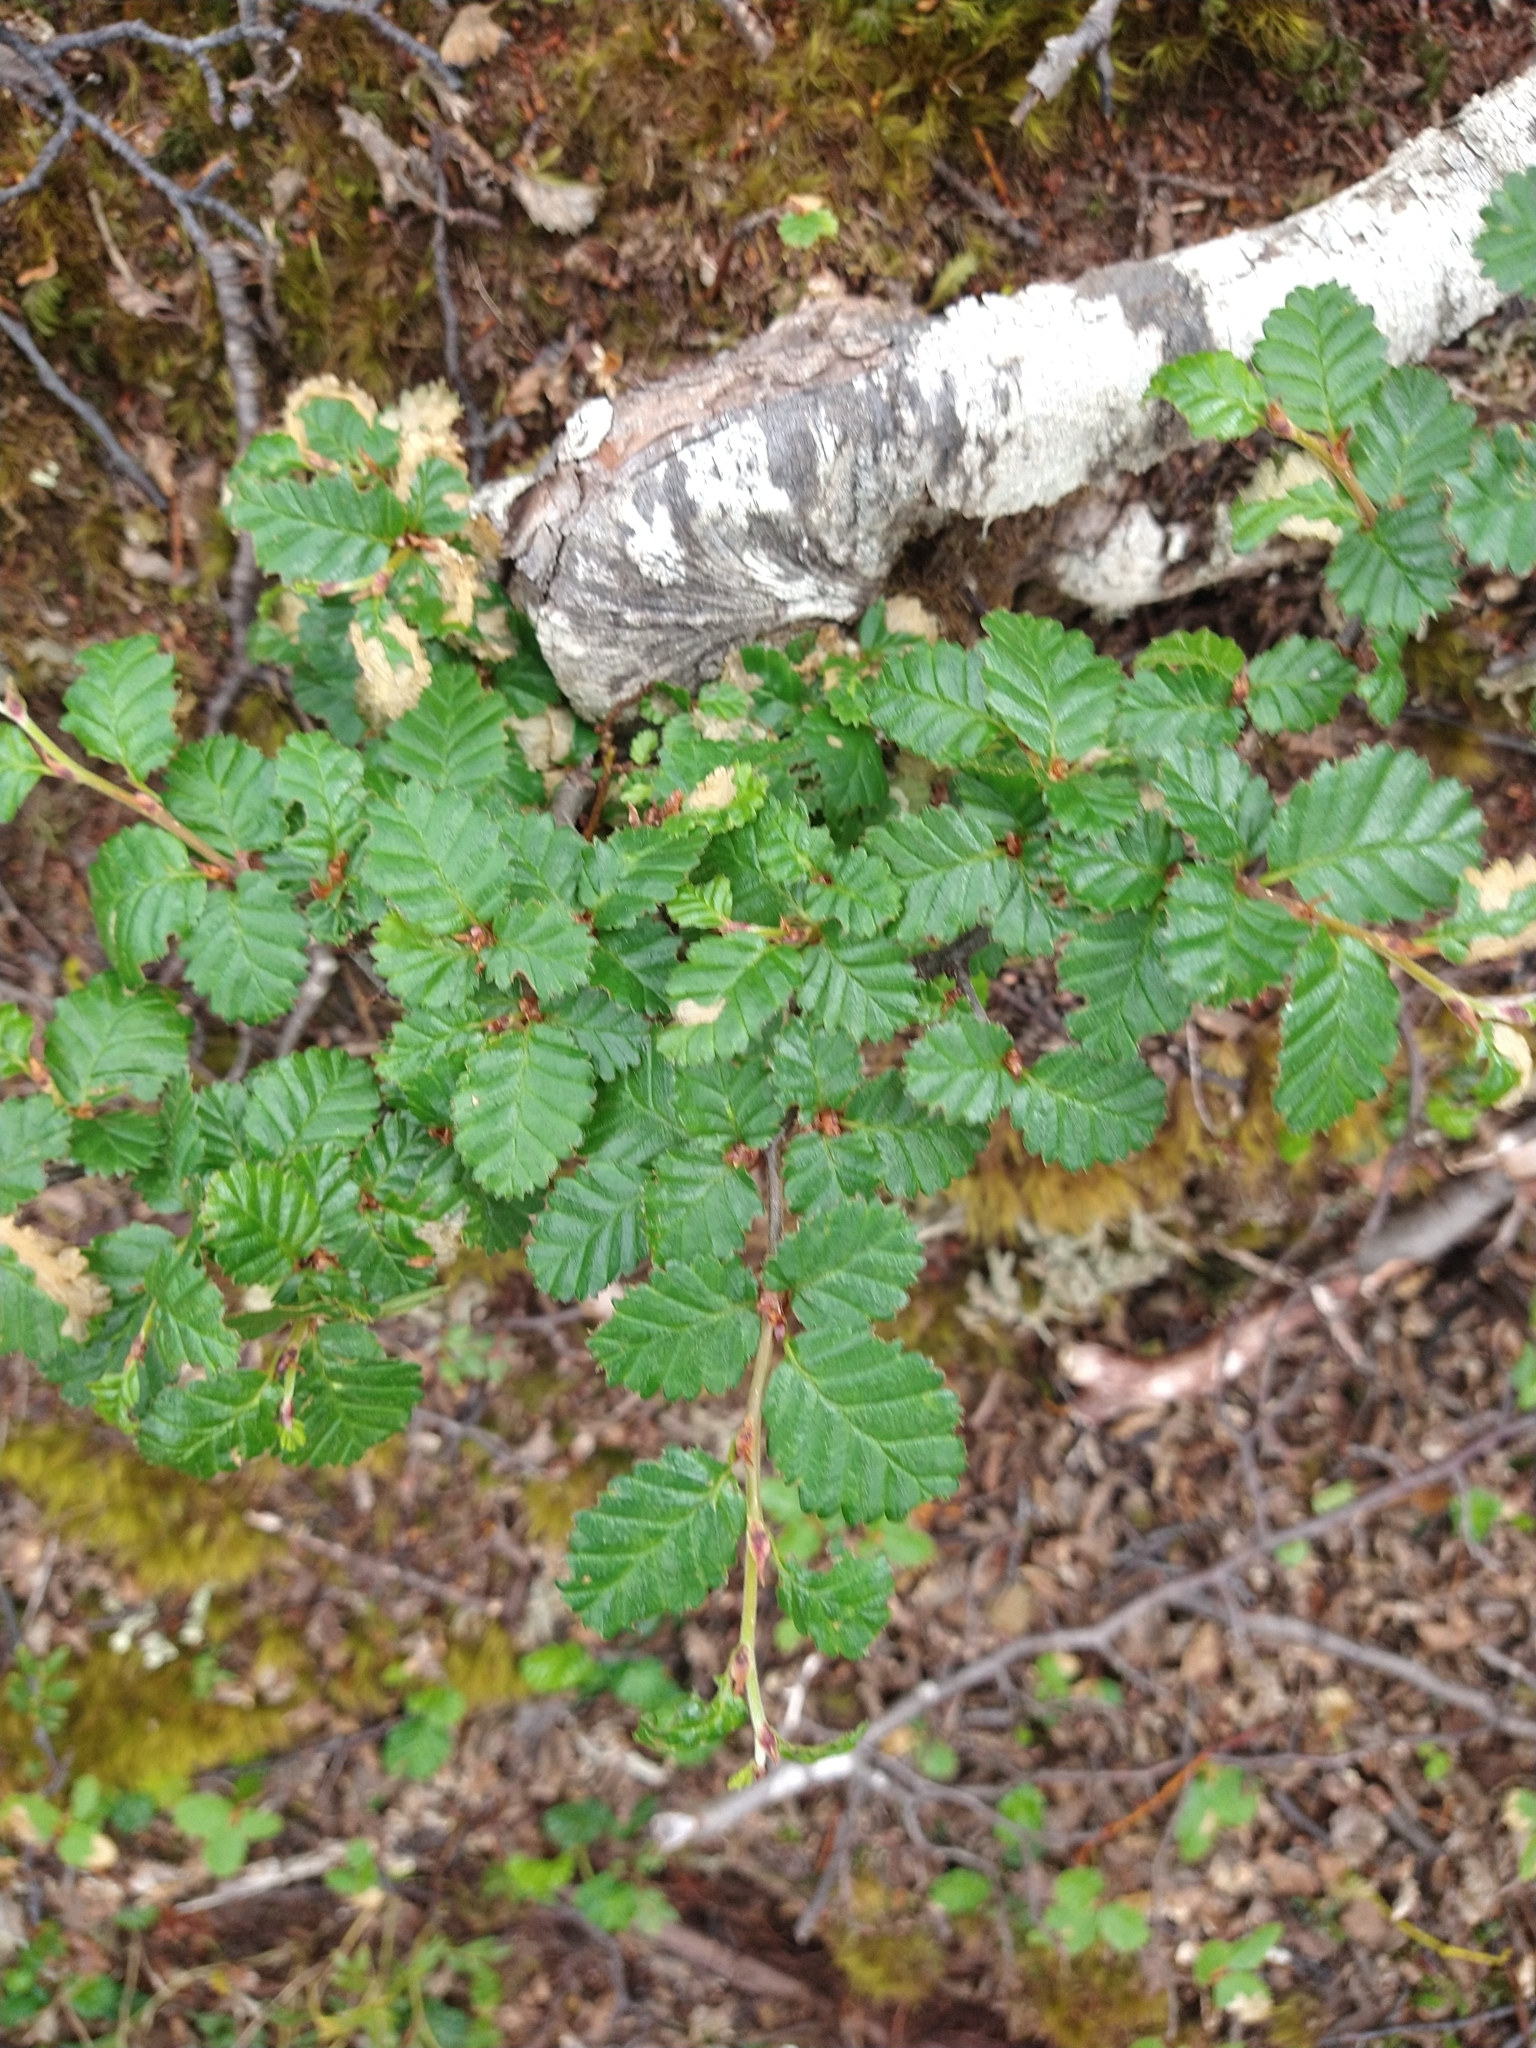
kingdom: Plantae
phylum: Tracheophyta
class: Magnoliopsida
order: Fagales
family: Nothofagaceae
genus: Nothofagus
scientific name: Nothofagus pumilio
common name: Lenga beech
